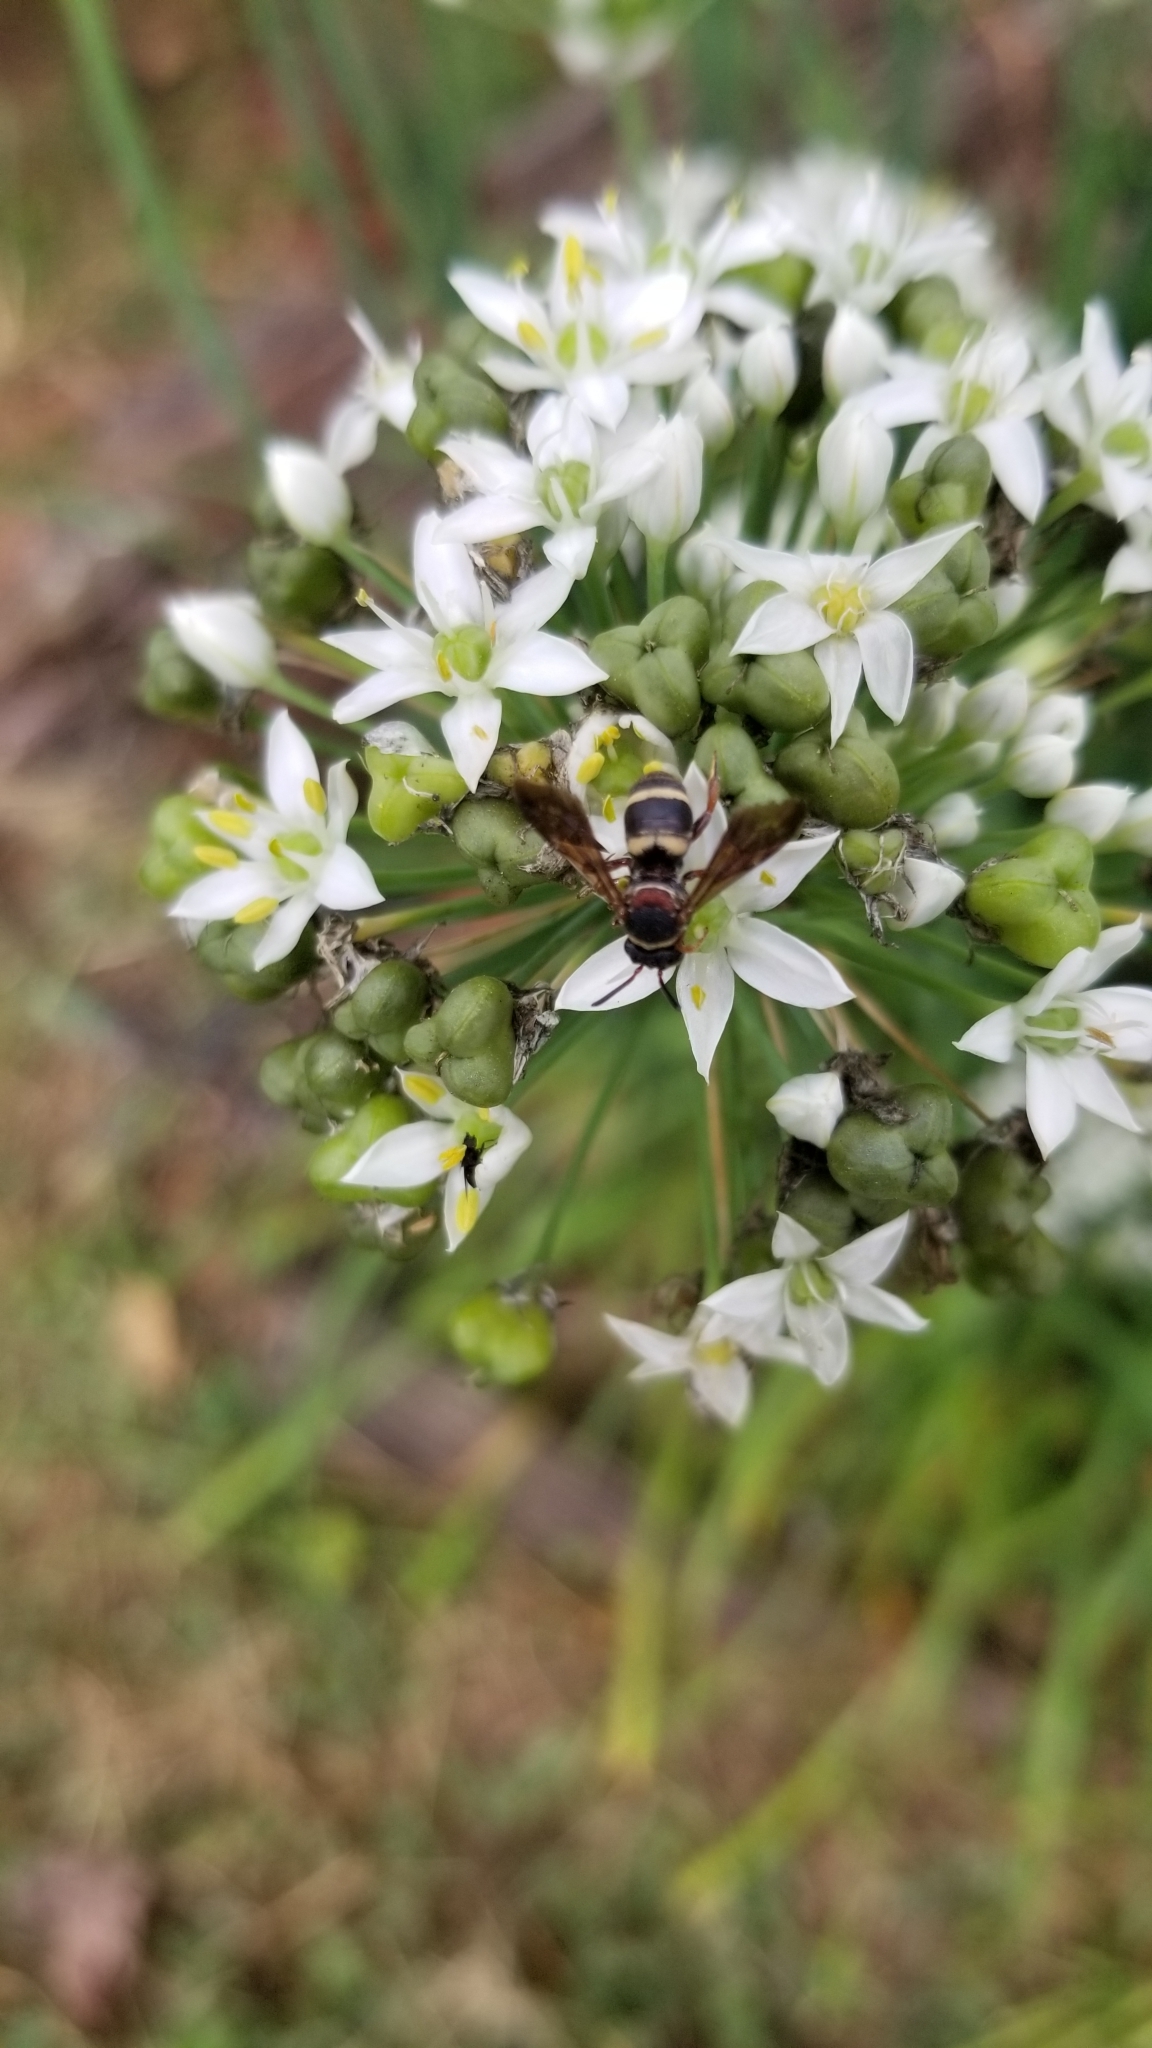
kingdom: Animalia
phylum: Arthropoda
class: Insecta
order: Hymenoptera
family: Apidae
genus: Epeolus
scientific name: Epeolus bifasciatus
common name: Two-banded cellophane-cuckoo
